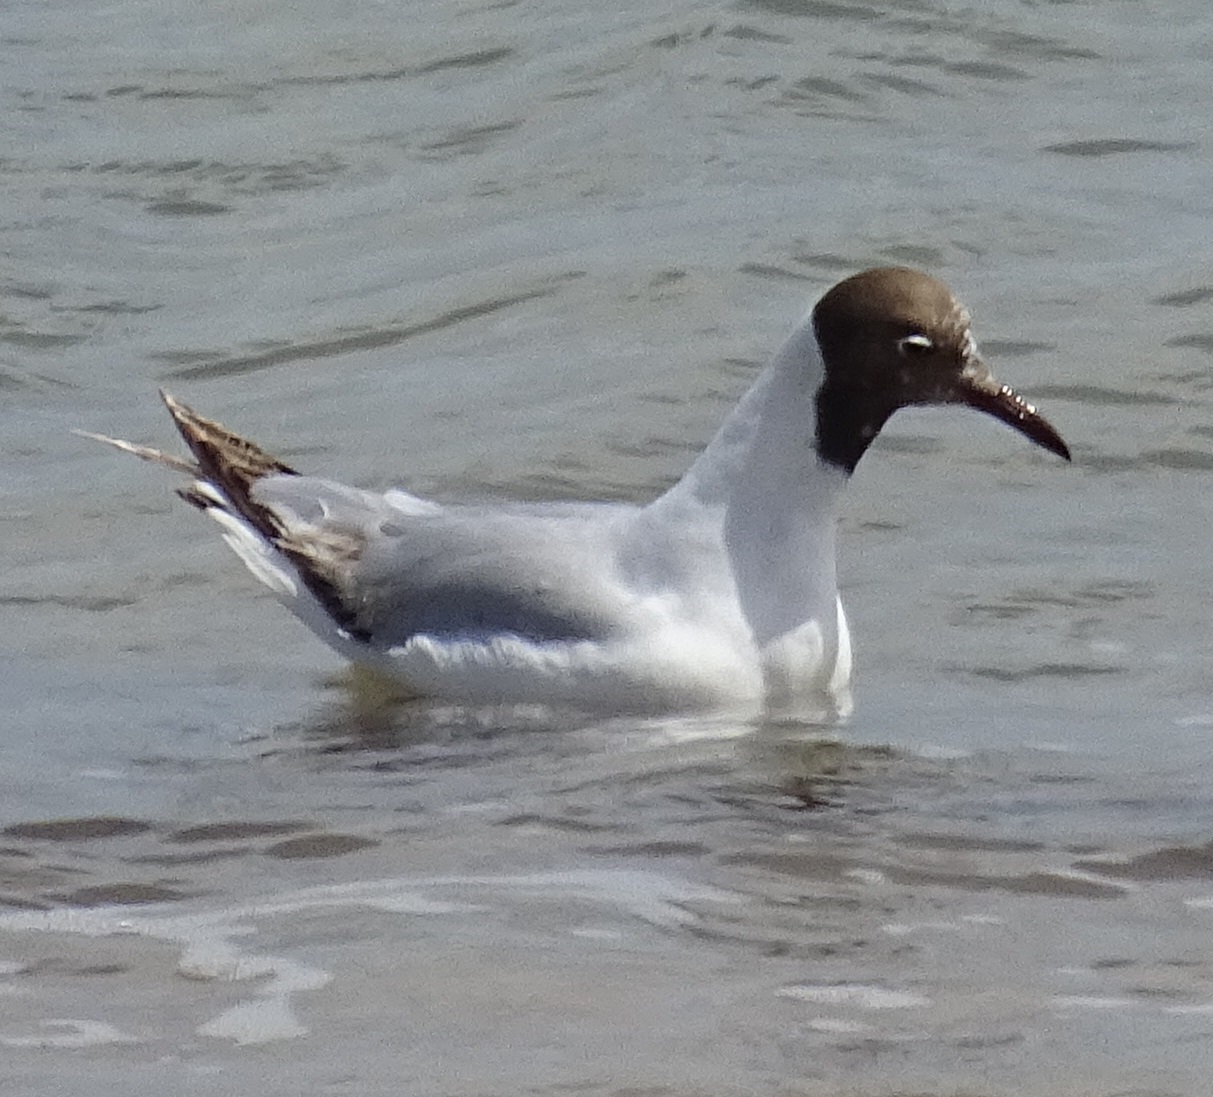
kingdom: Animalia
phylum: Chordata
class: Aves
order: Charadriiformes
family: Laridae
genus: Chroicocephalus
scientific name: Chroicocephalus ridibundus
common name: Black-headed gull
